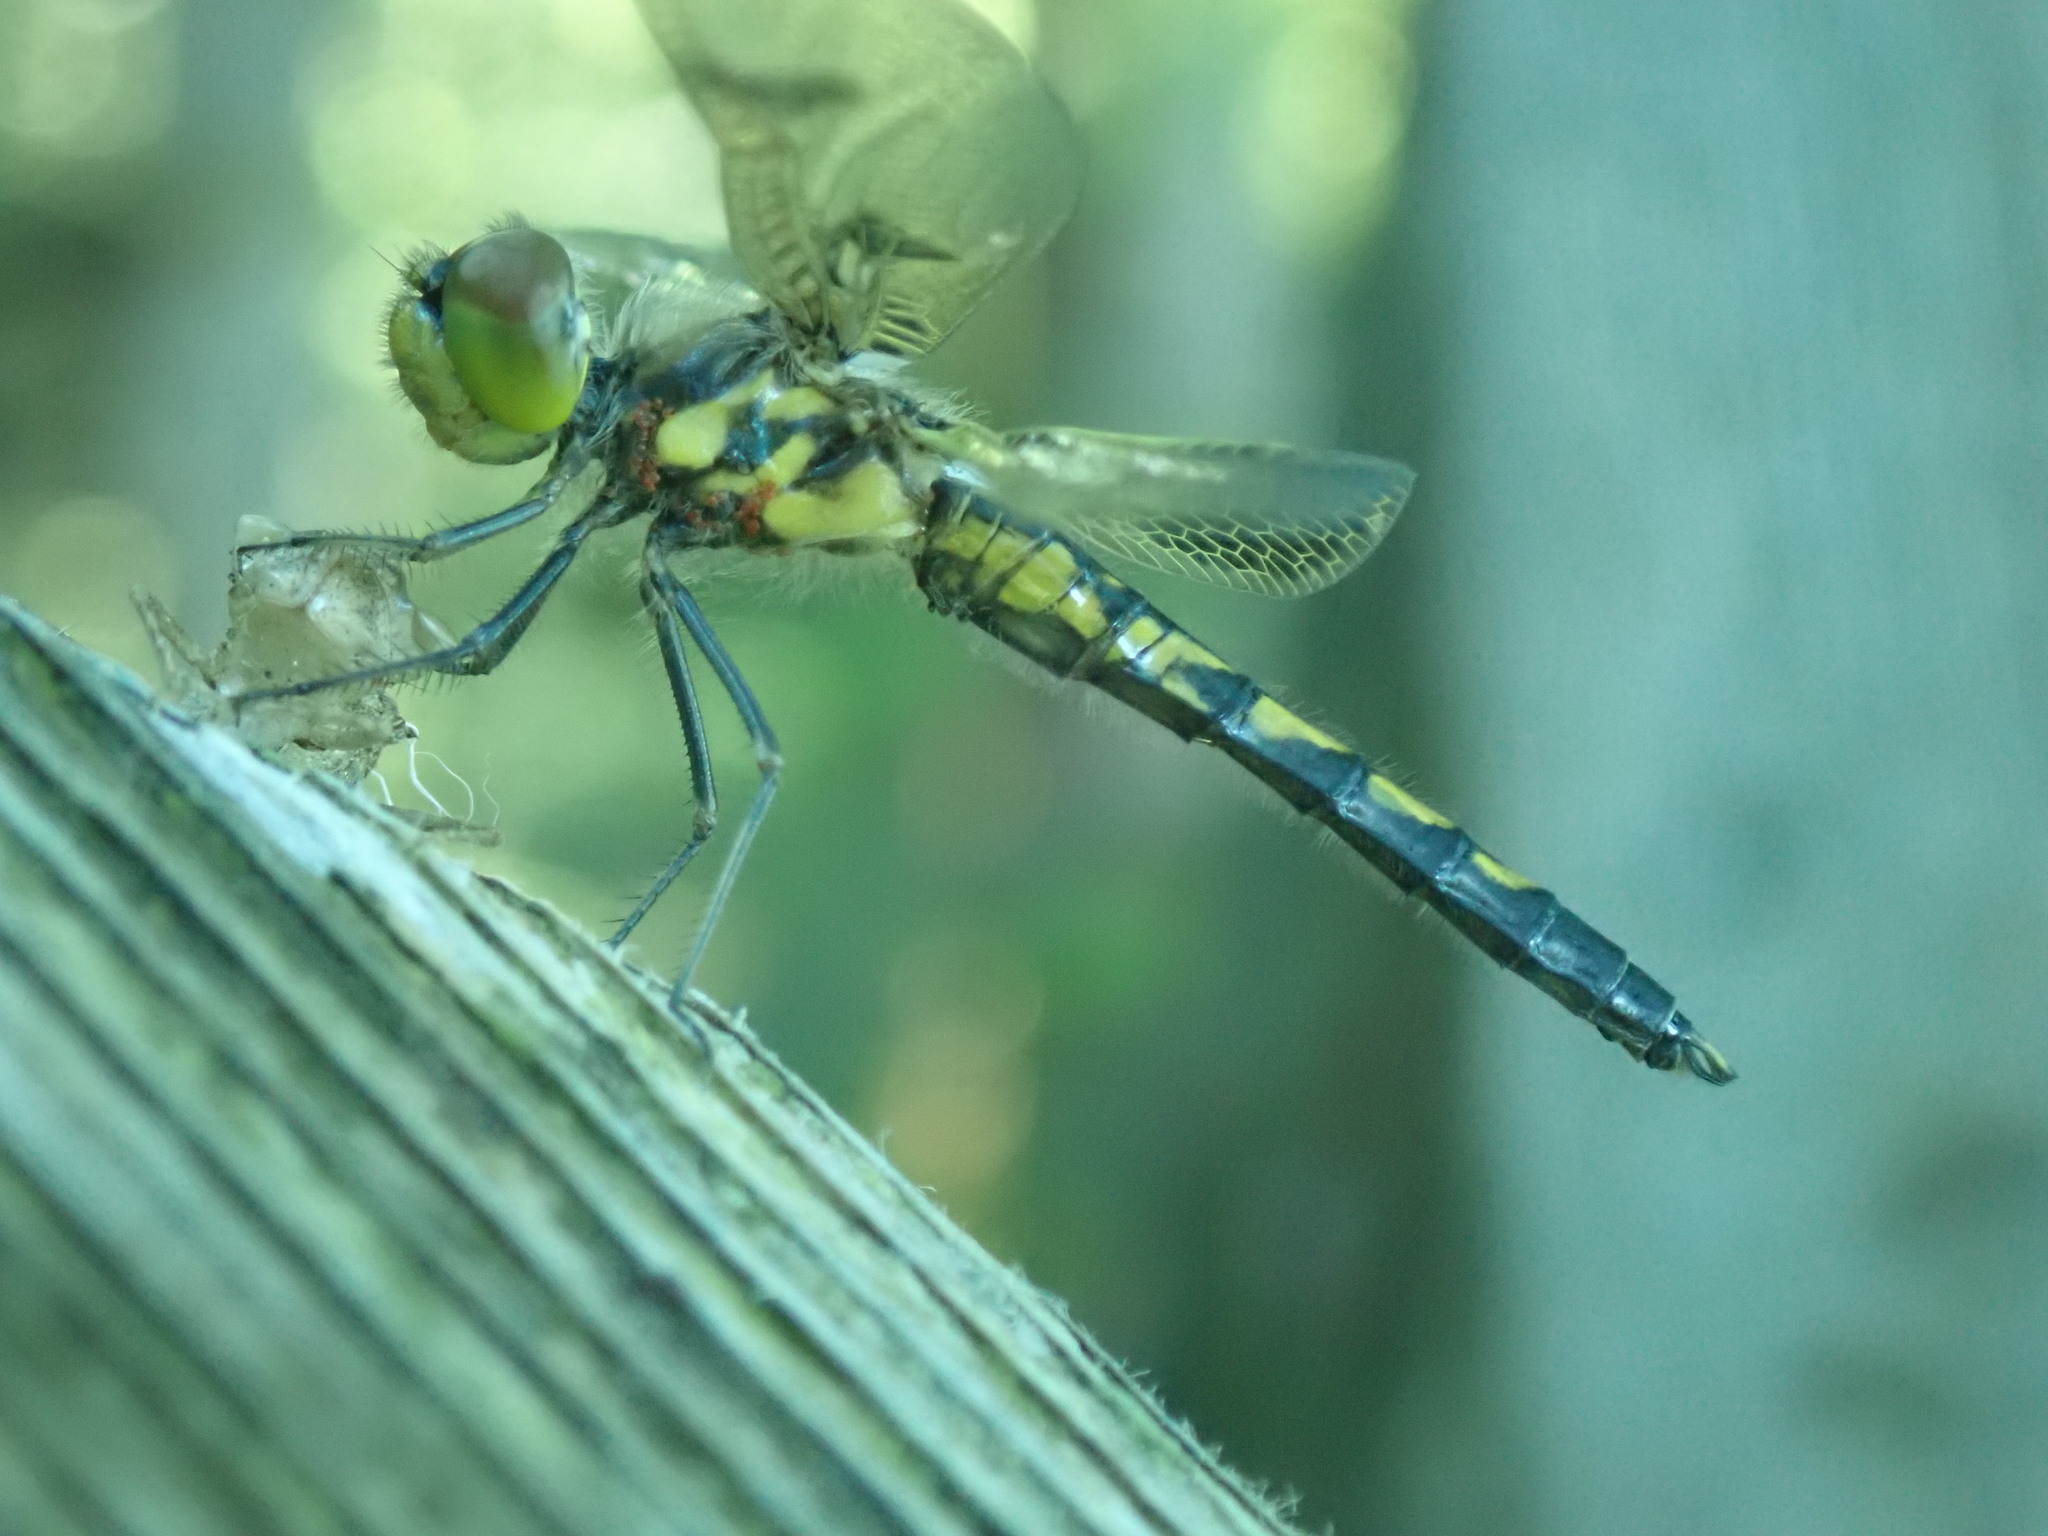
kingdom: Animalia
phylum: Arthropoda
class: Insecta
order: Odonata
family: Libellulidae
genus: Celithemis
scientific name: Celithemis elisa
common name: Calico pennant
